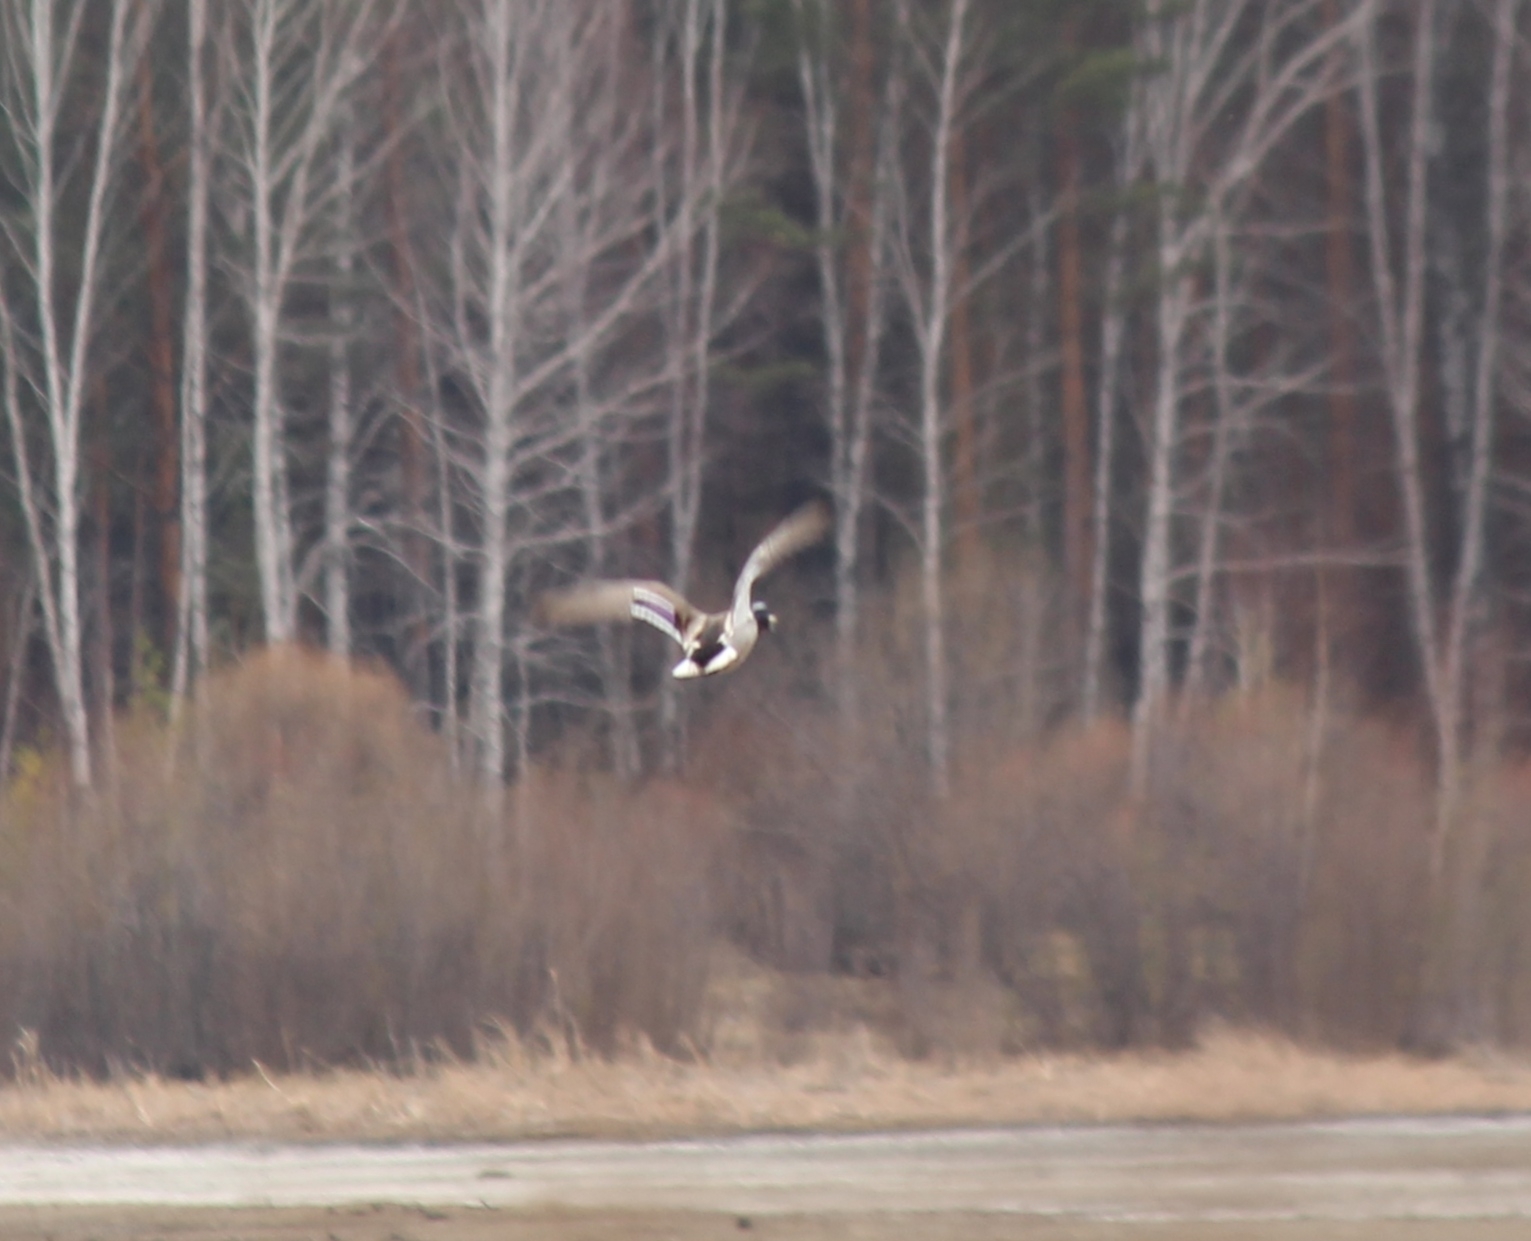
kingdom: Animalia
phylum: Chordata
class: Aves
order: Anseriformes
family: Anatidae
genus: Anas
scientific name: Anas platyrhynchos
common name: Mallard
